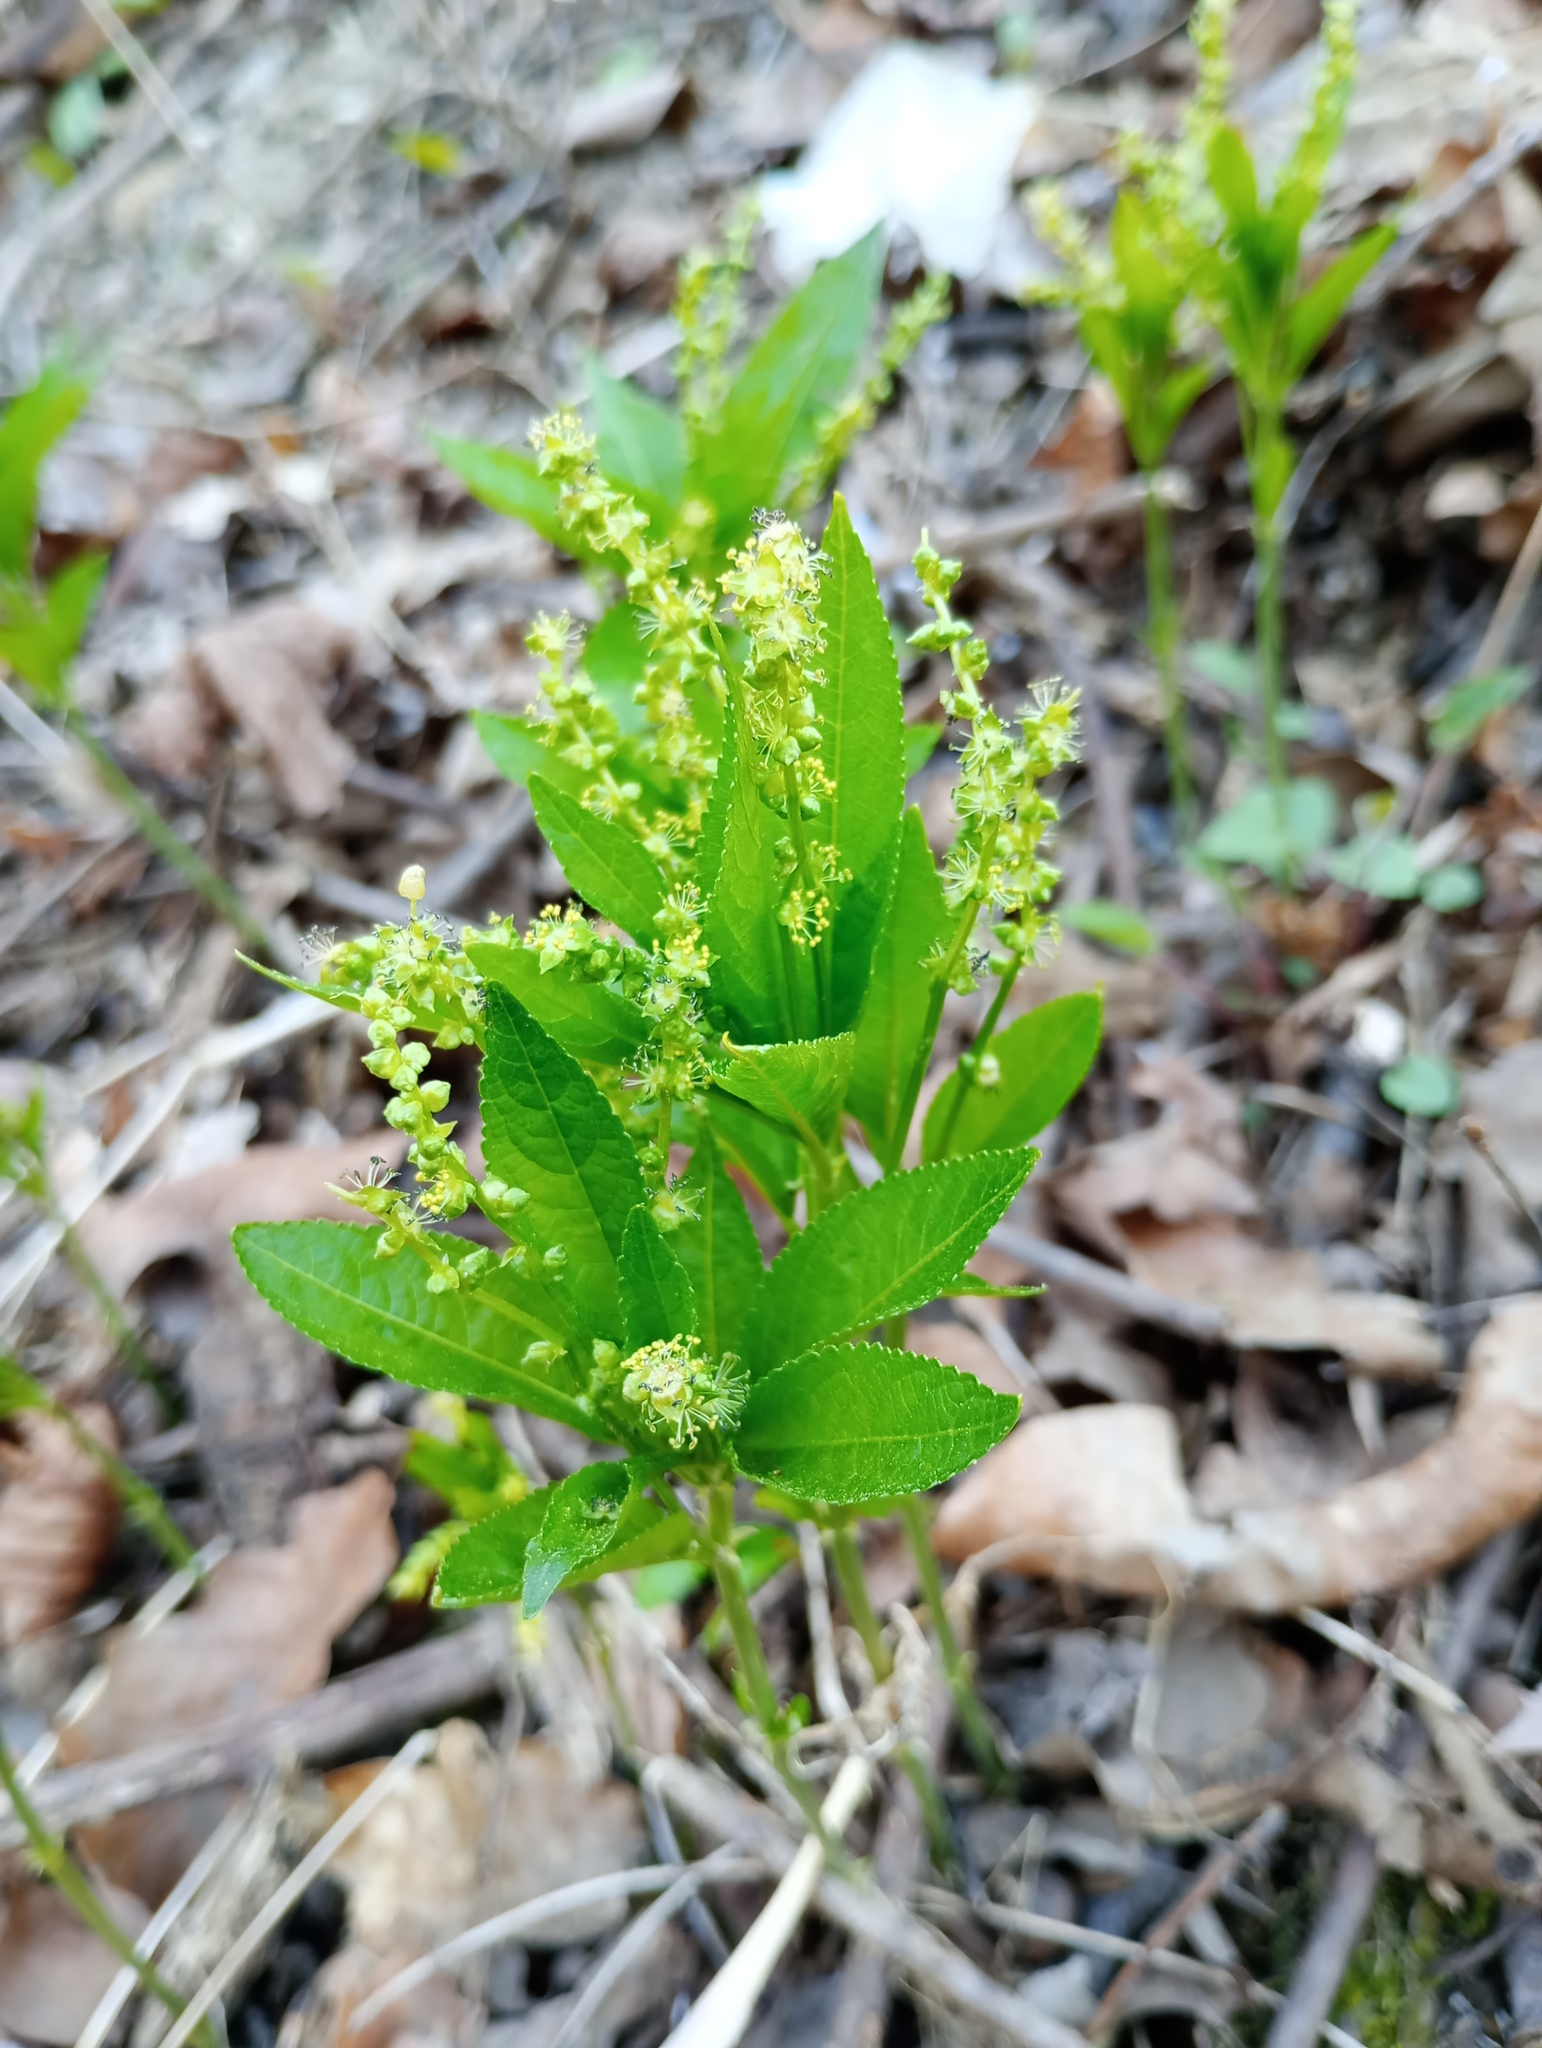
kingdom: Plantae
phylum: Tracheophyta
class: Magnoliopsida
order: Malpighiales
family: Euphorbiaceae
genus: Mercurialis
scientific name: Mercurialis perennis
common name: Dog mercury
